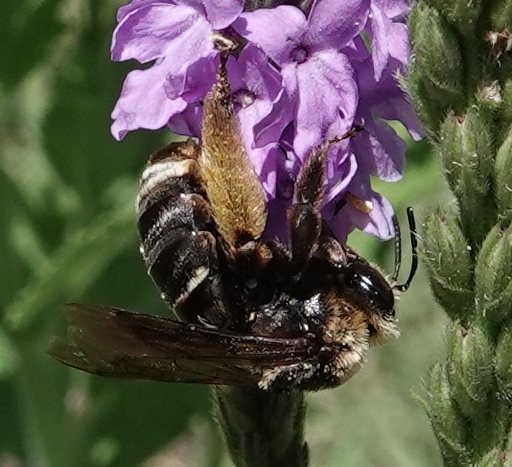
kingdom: Animalia
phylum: Arthropoda
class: Insecta
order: Hymenoptera
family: Apidae
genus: Svastra
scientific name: Svastra obliqua
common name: Oblique longhorn
